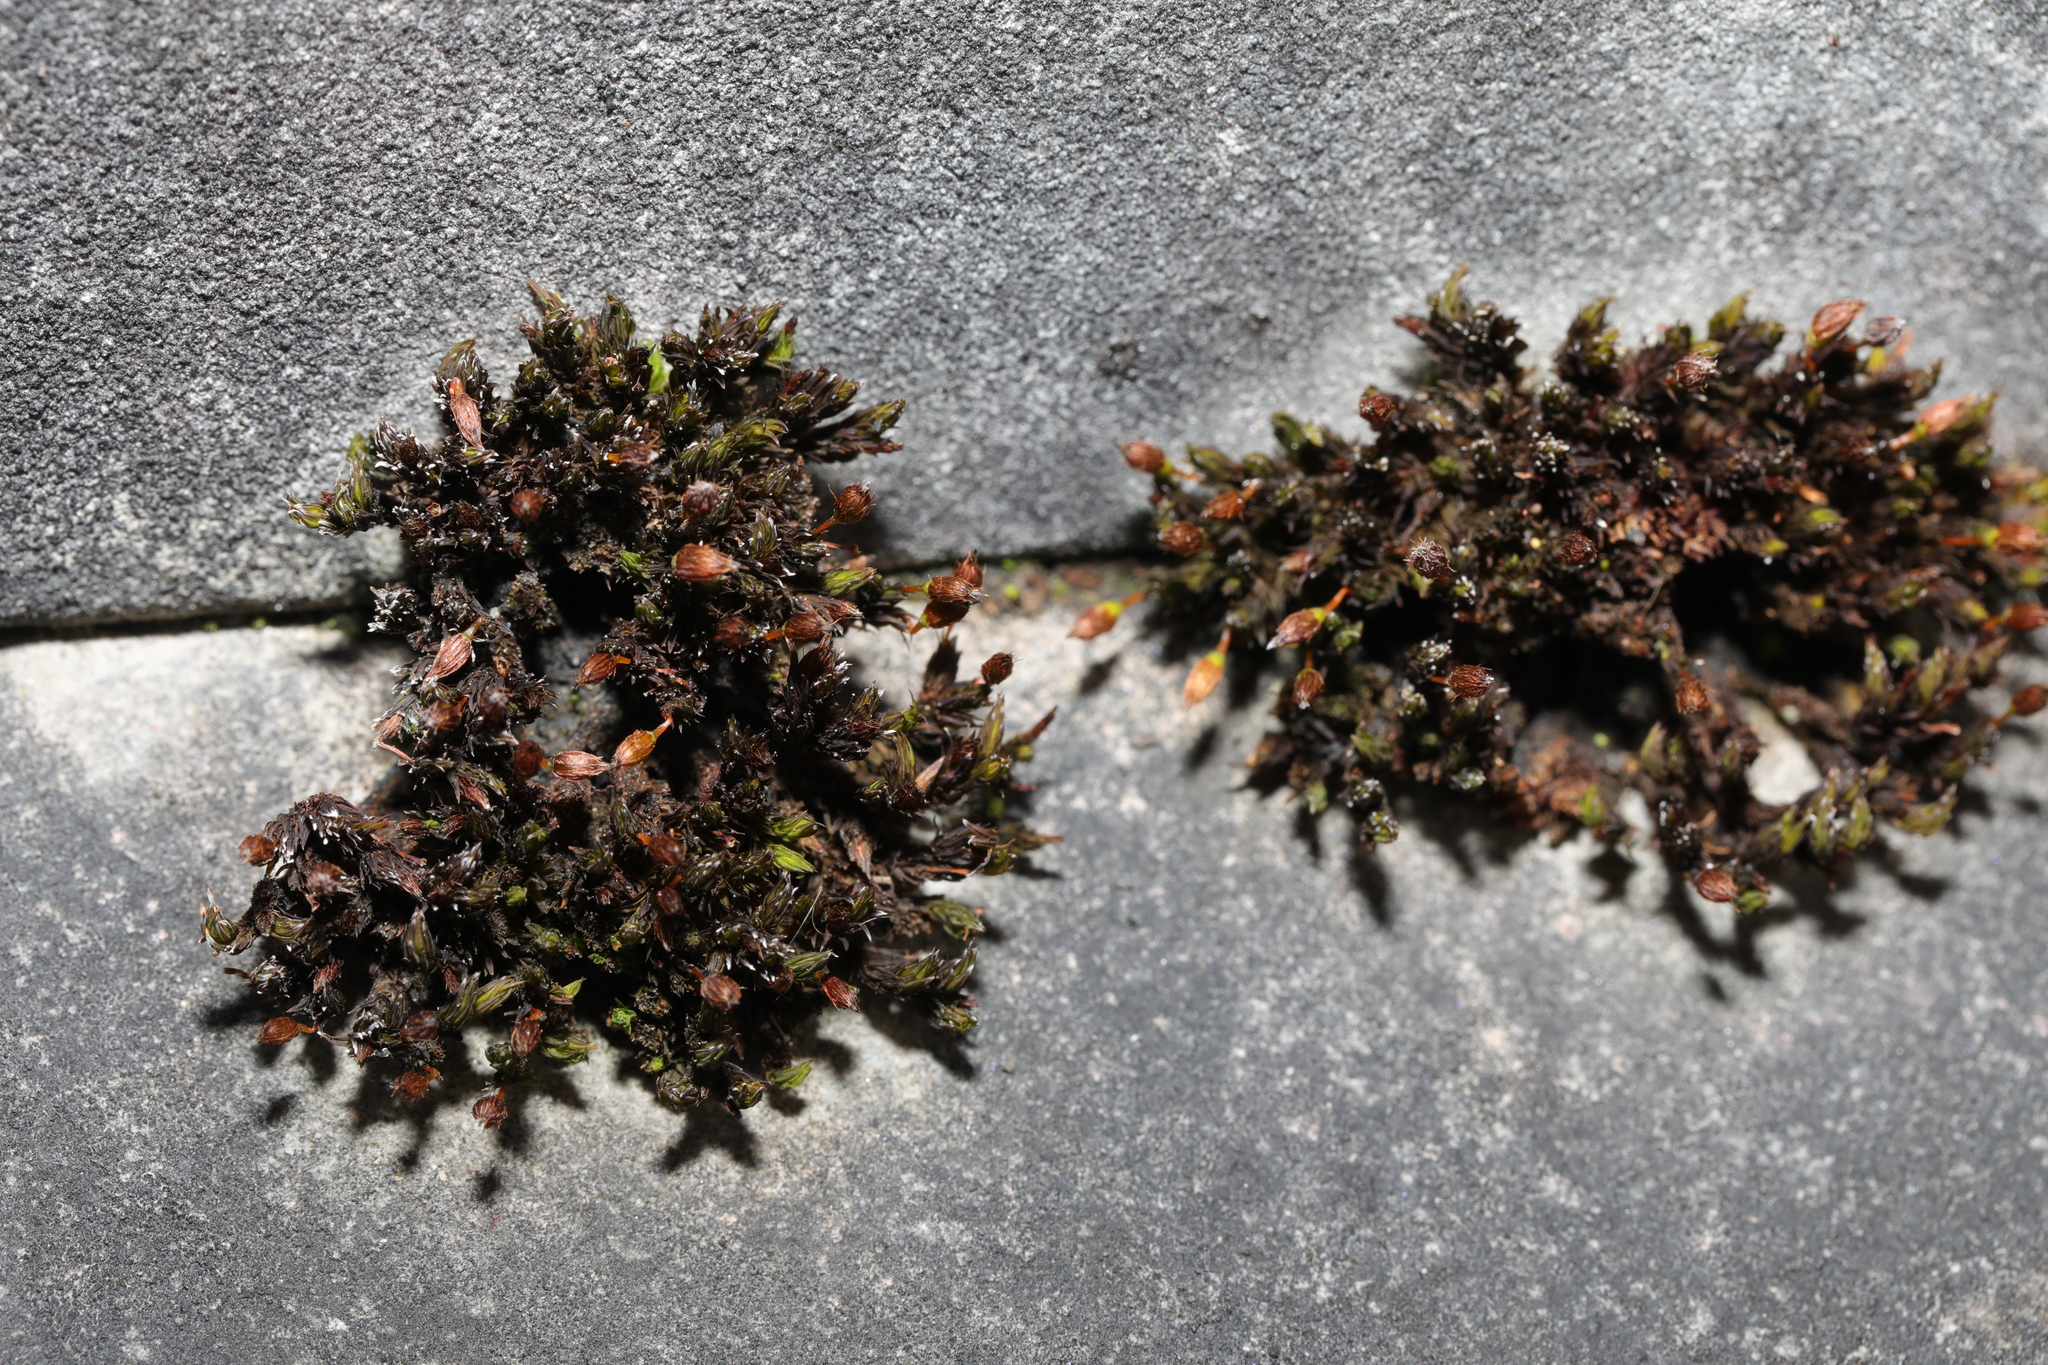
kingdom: Plantae
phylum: Bryophyta
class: Bryopsida
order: Orthotrichales
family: Orthotrichaceae
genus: Orthotrichum
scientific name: Orthotrichum anomalum
